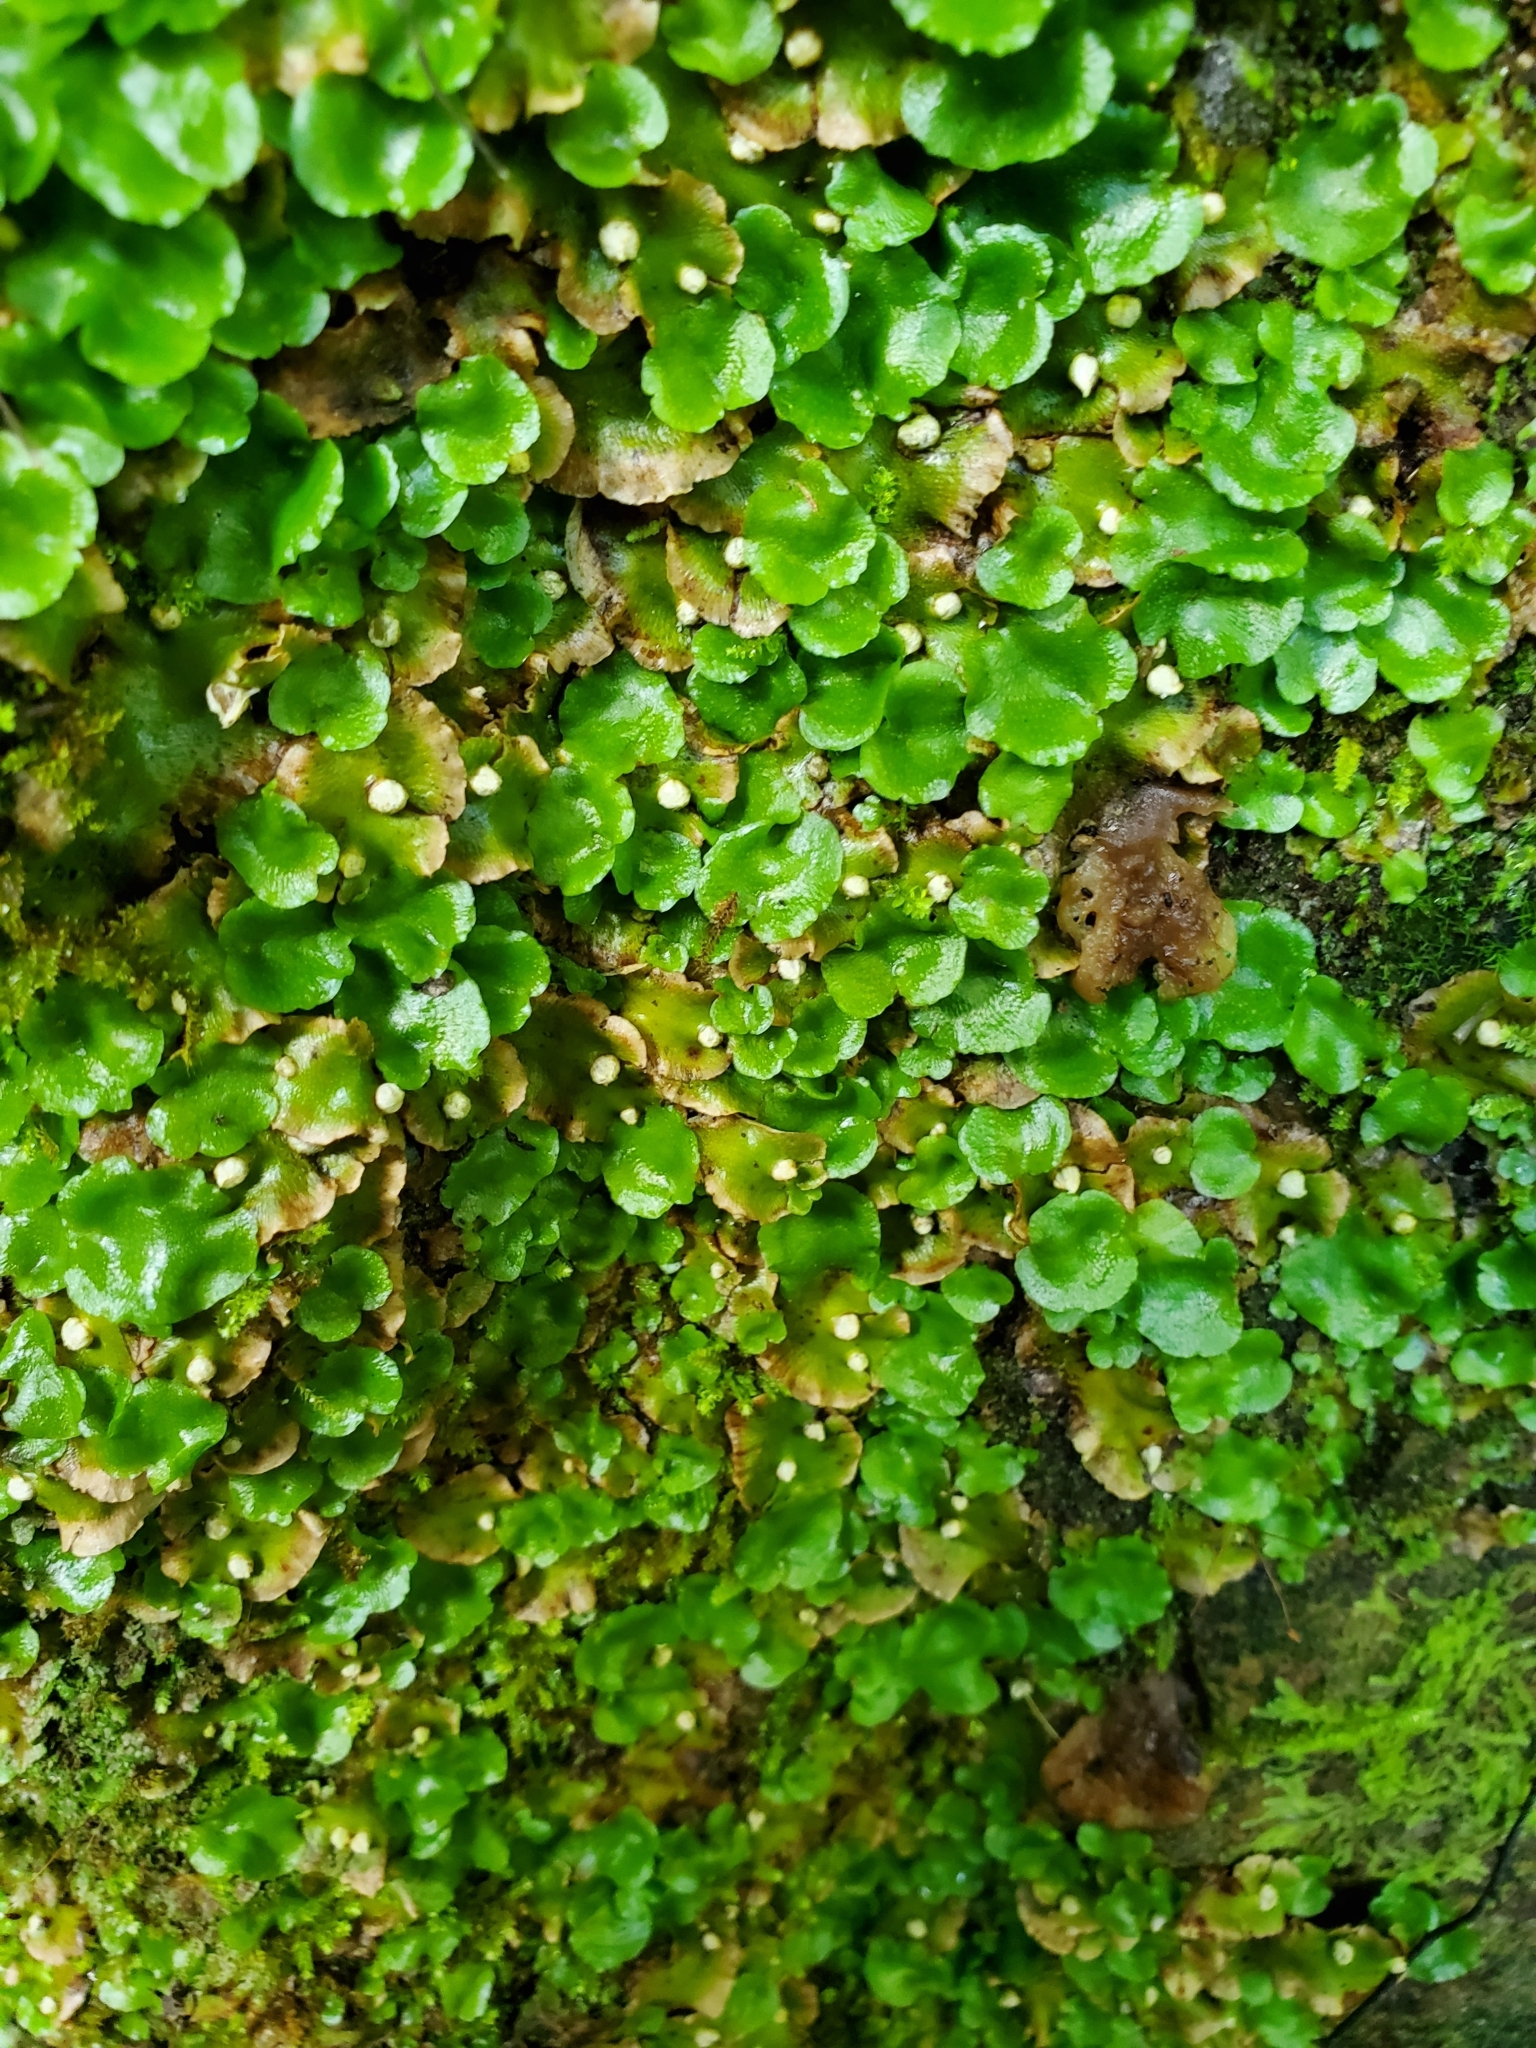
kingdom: Plantae
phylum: Marchantiophyta
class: Marchantiopsida
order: Lunulariales
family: Lunulariaceae
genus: Lunularia
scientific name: Lunularia cruciata
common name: Crescent-cup liverwort
